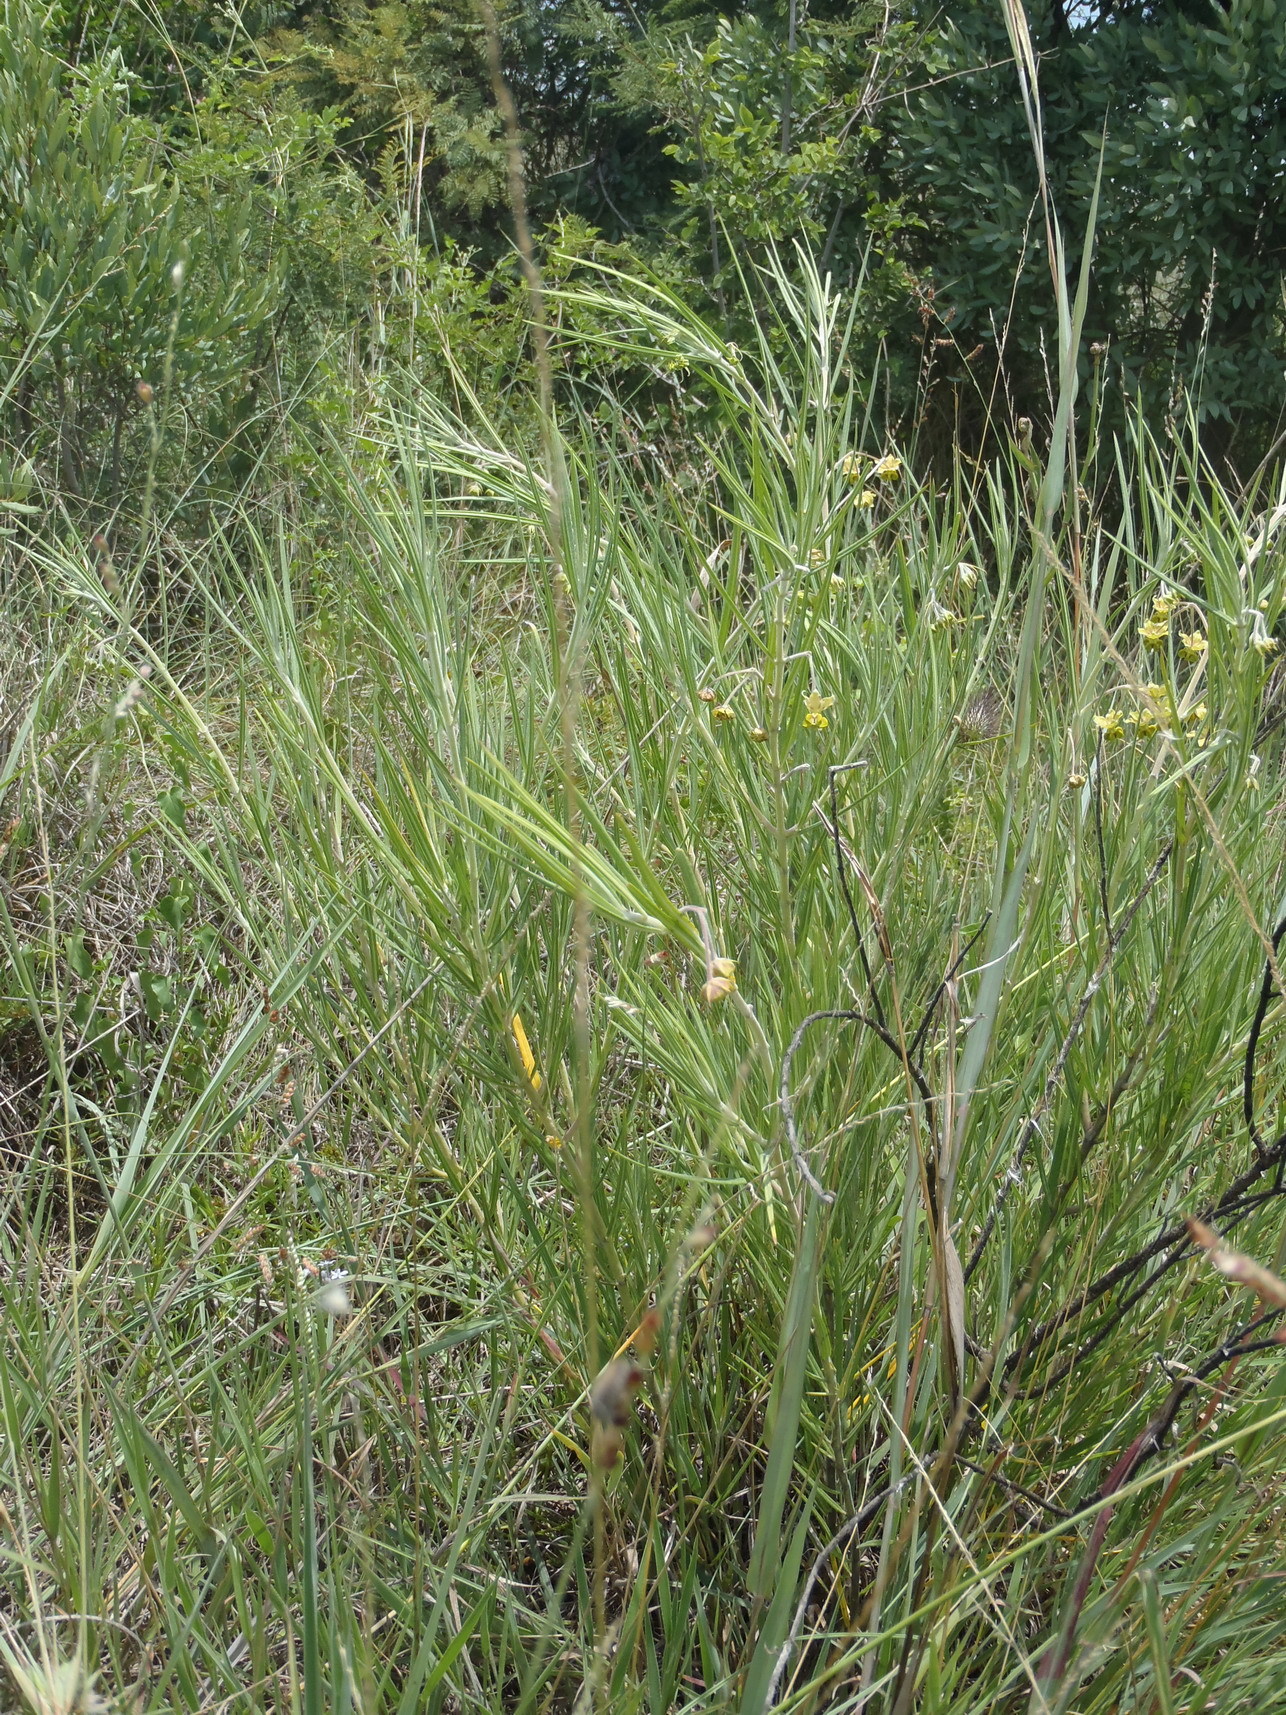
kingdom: Plantae
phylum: Tracheophyta
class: Magnoliopsida
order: Gentianales
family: Apocynaceae
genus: Gomphocarpus
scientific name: Gomphocarpus tomentosus
